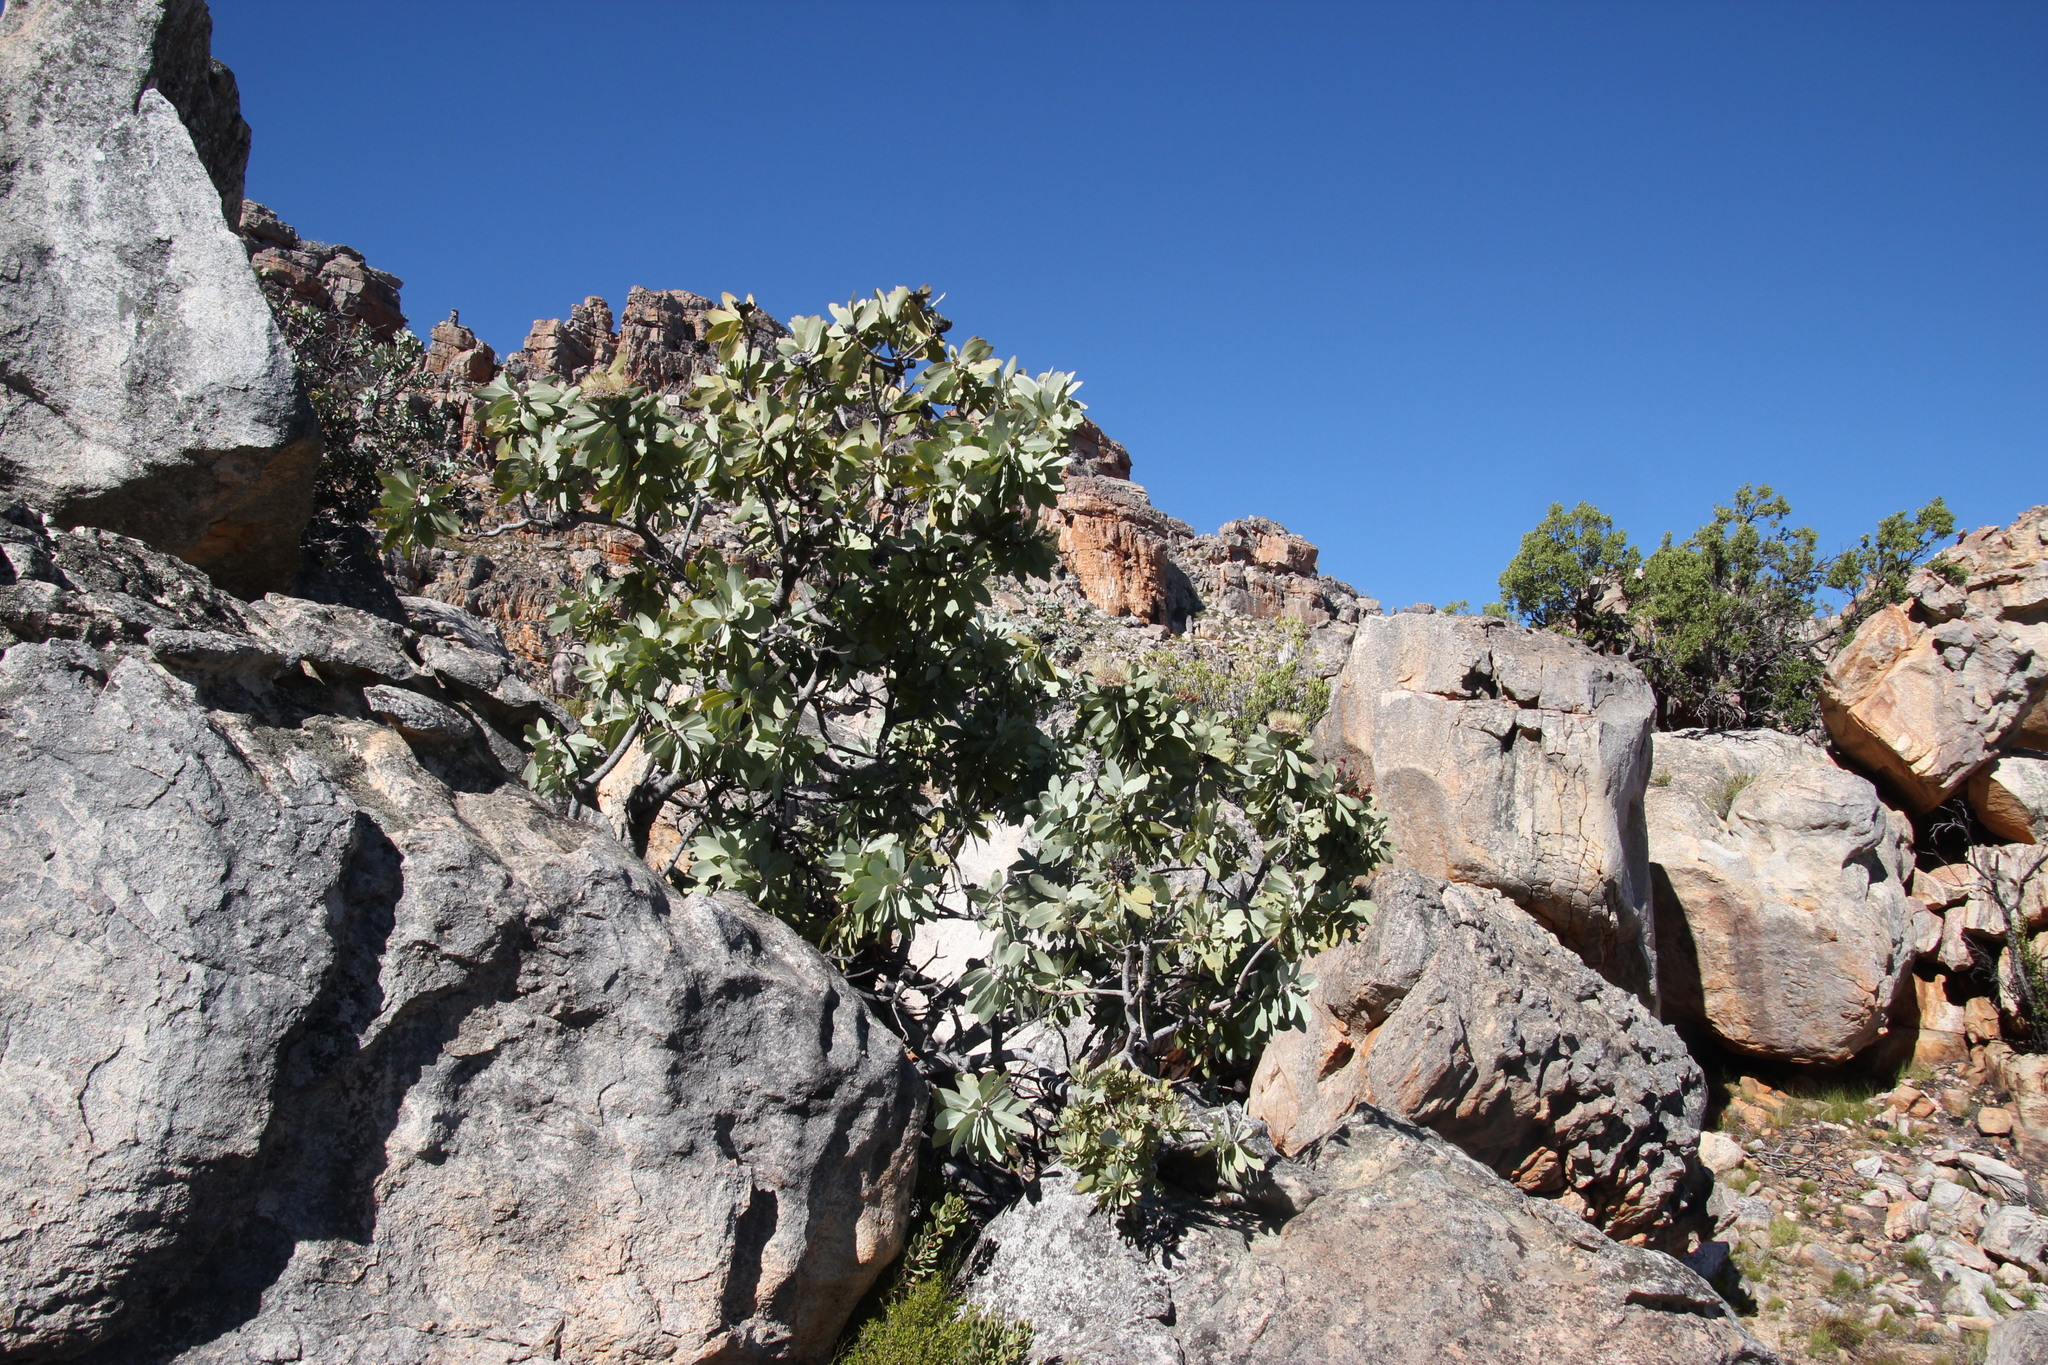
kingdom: Plantae
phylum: Tracheophyta
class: Magnoliopsida
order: Proteales
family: Proteaceae
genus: Protea
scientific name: Protea nitida
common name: Tree protea
